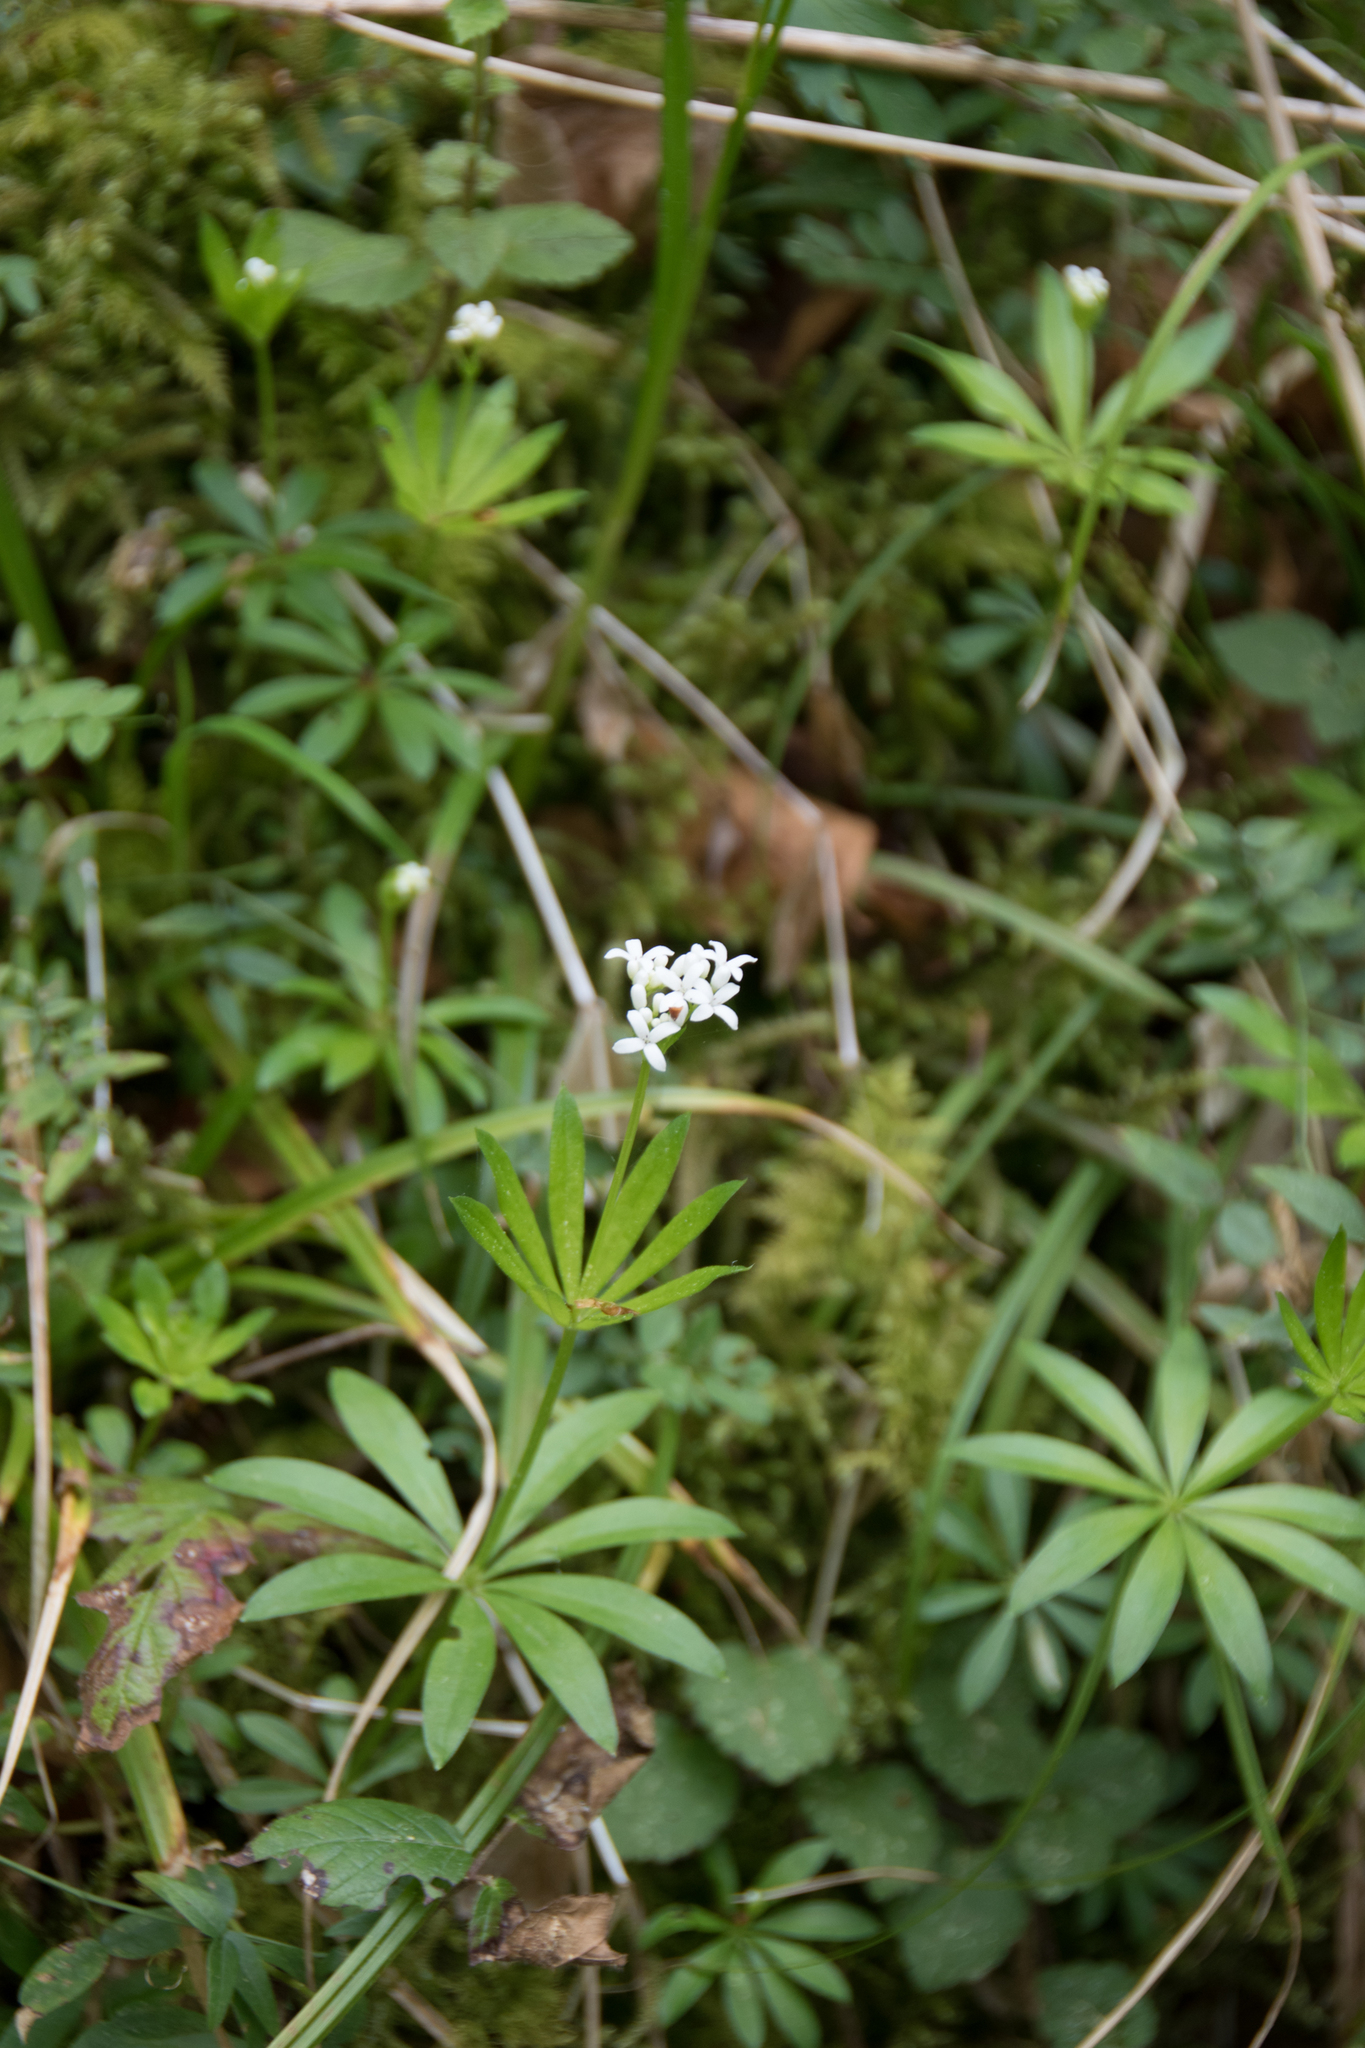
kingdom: Plantae
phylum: Tracheophyta
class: Magnoliopsida
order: Gentianales
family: Rubiaceae
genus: Galium
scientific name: Galium odoratum
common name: Sweet woodruff
